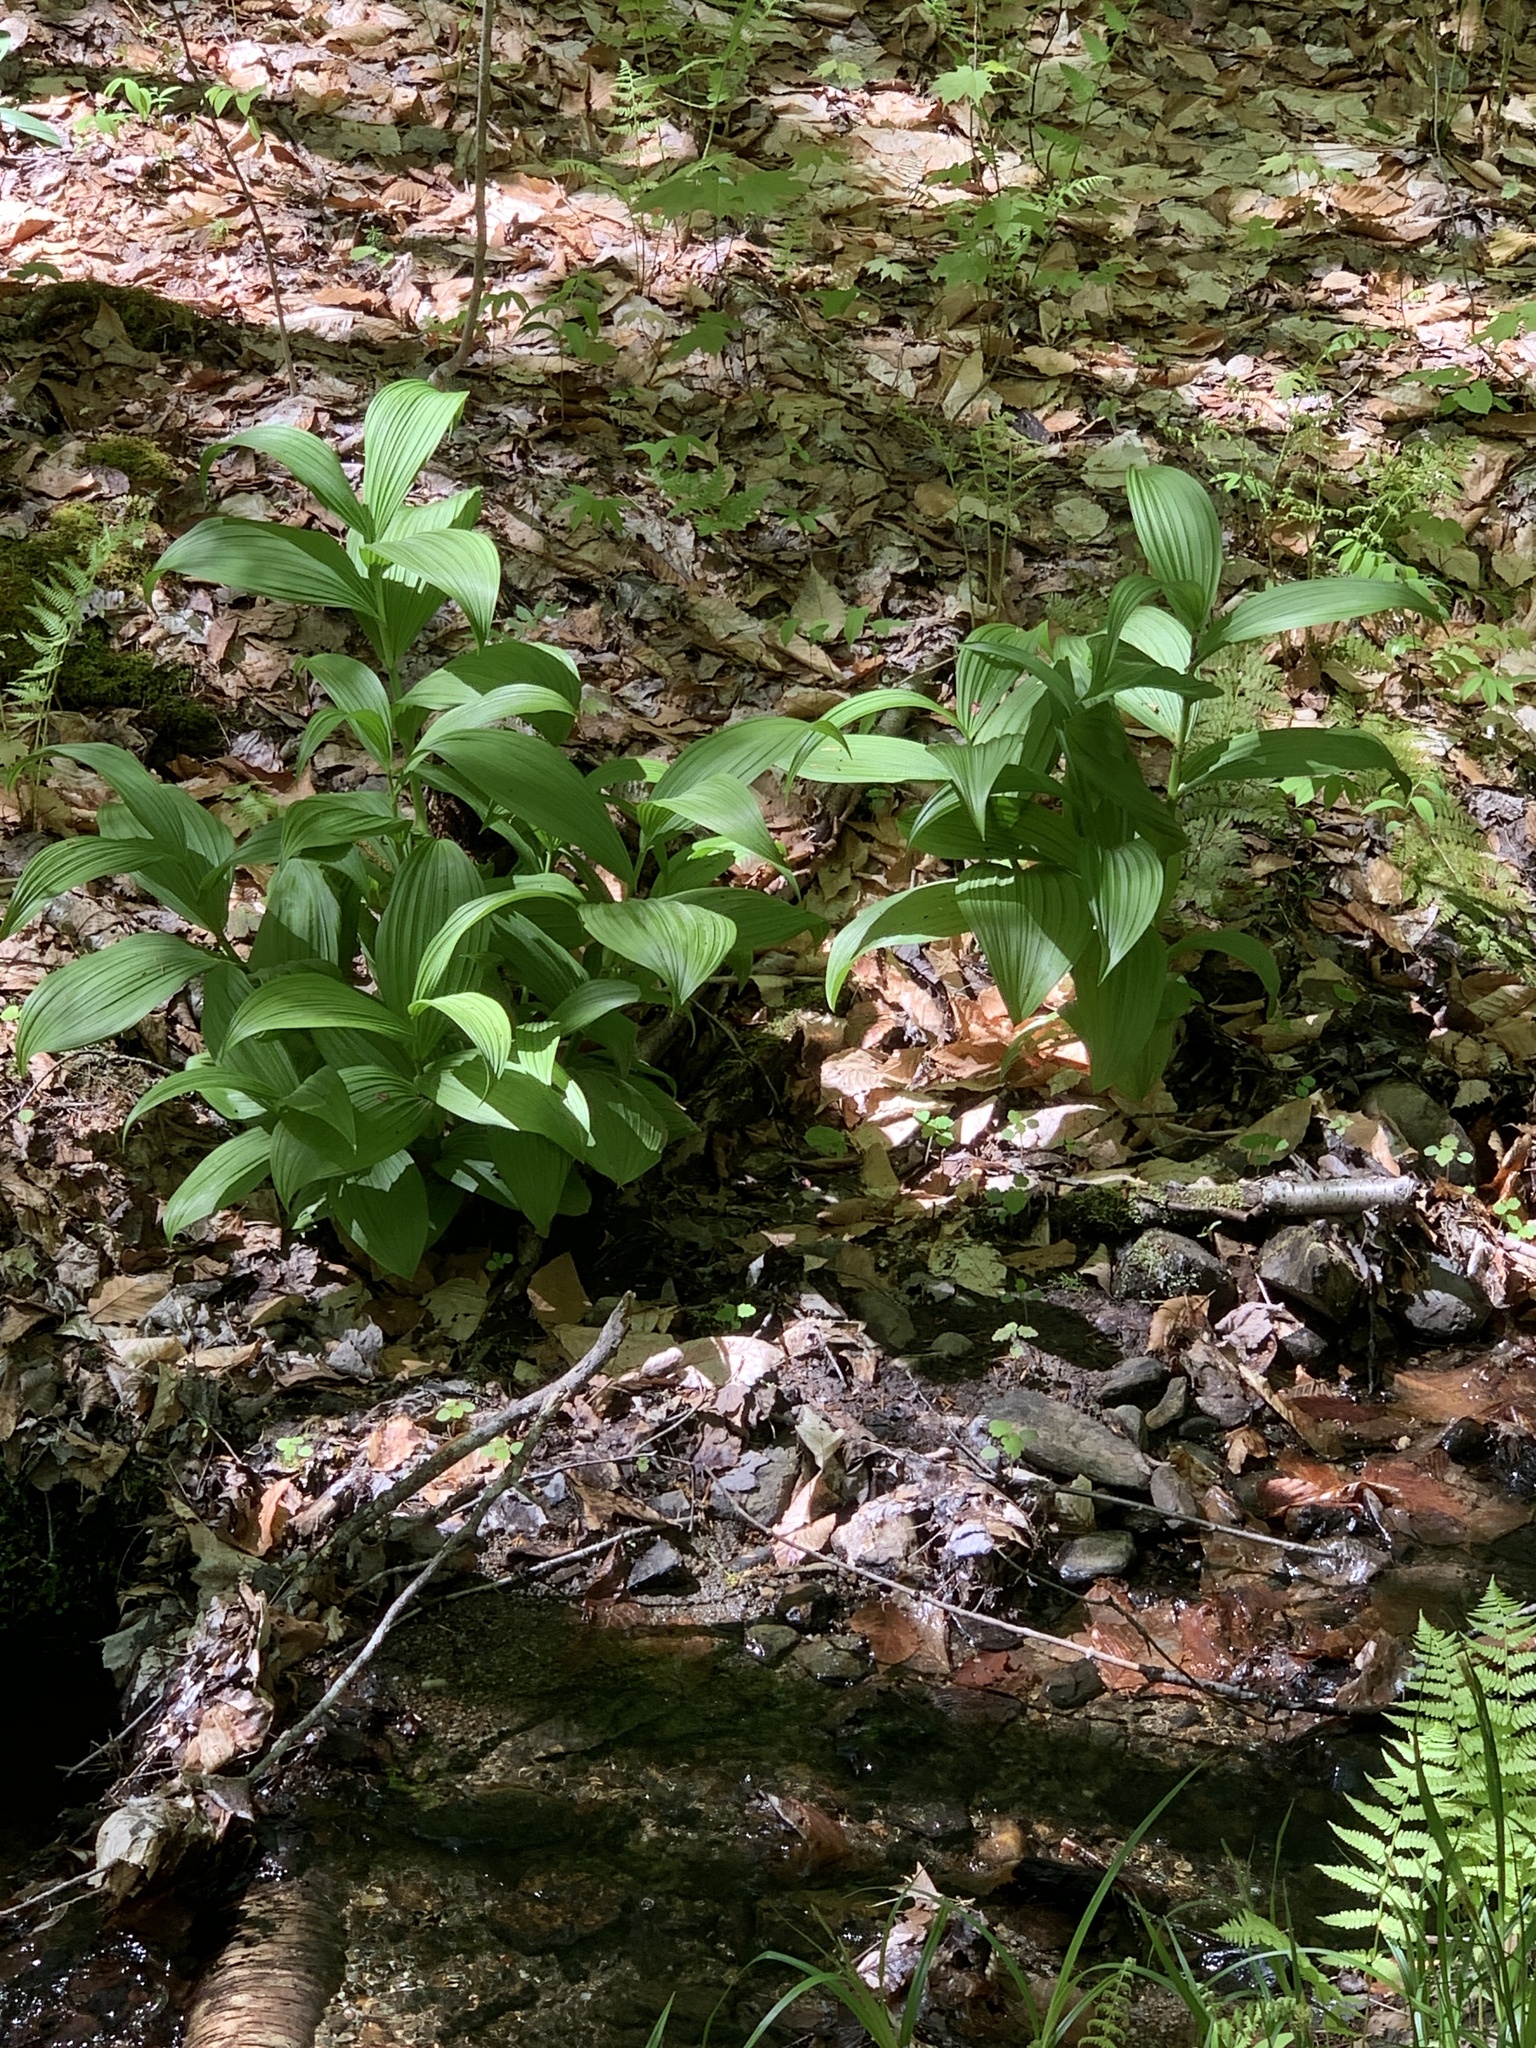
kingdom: Plantae
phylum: Tracheophyta
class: Liliopsida
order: Liliales
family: Melanthiaceae
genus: Veratrum
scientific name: Veratrum viride
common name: American false hellebore
